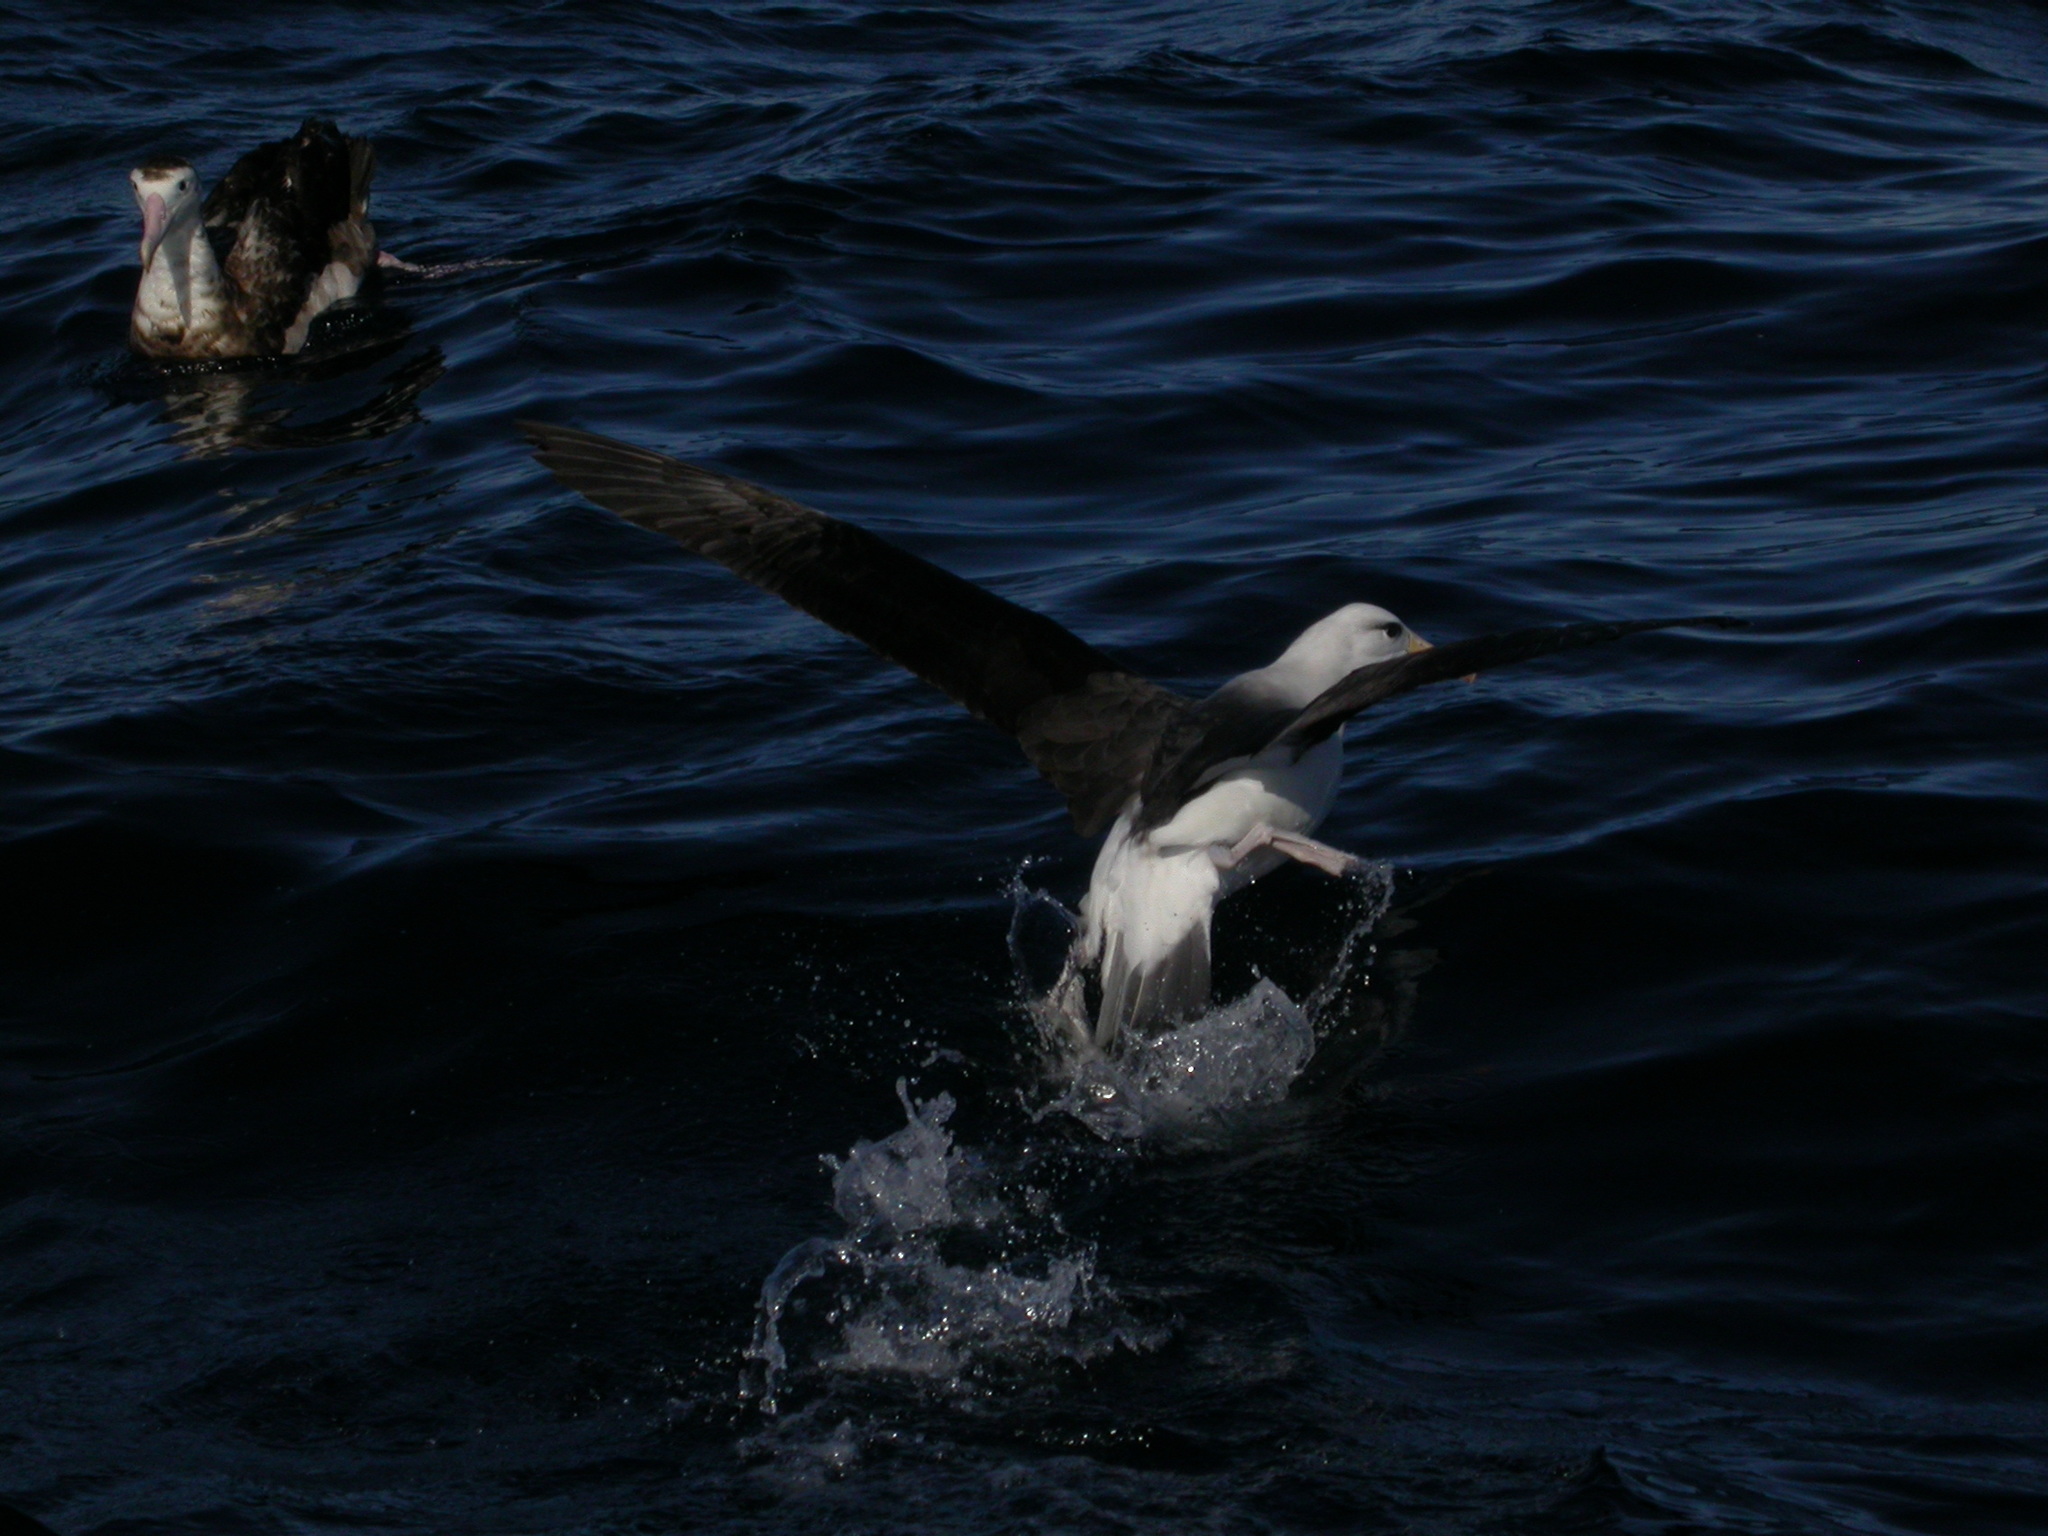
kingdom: Animalia
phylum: Chordata
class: Aves
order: Procellariiformes
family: Diomedeidae
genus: Thalassarche
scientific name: Thalassarche melanophris
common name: Black-browed albatross
